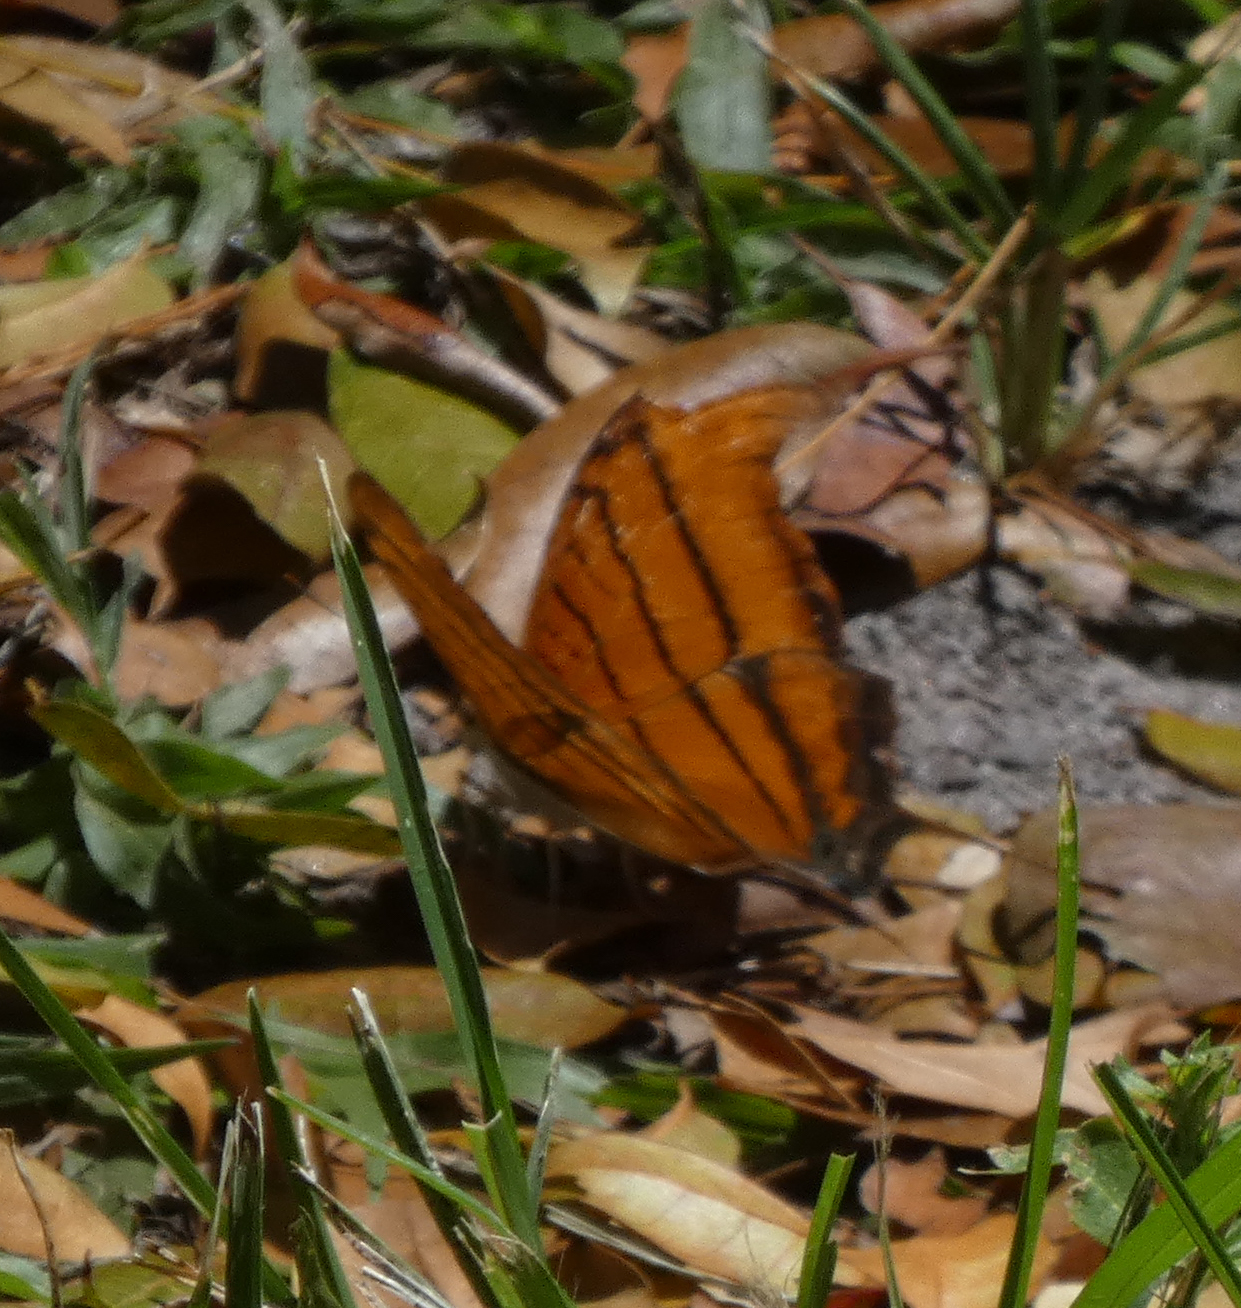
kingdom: Animalia
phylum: Arthropoda
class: Insecta
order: Lepidoptera
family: Nymphalidae
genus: Marpesia
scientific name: Marpesia petreus
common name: Red dagger wing
